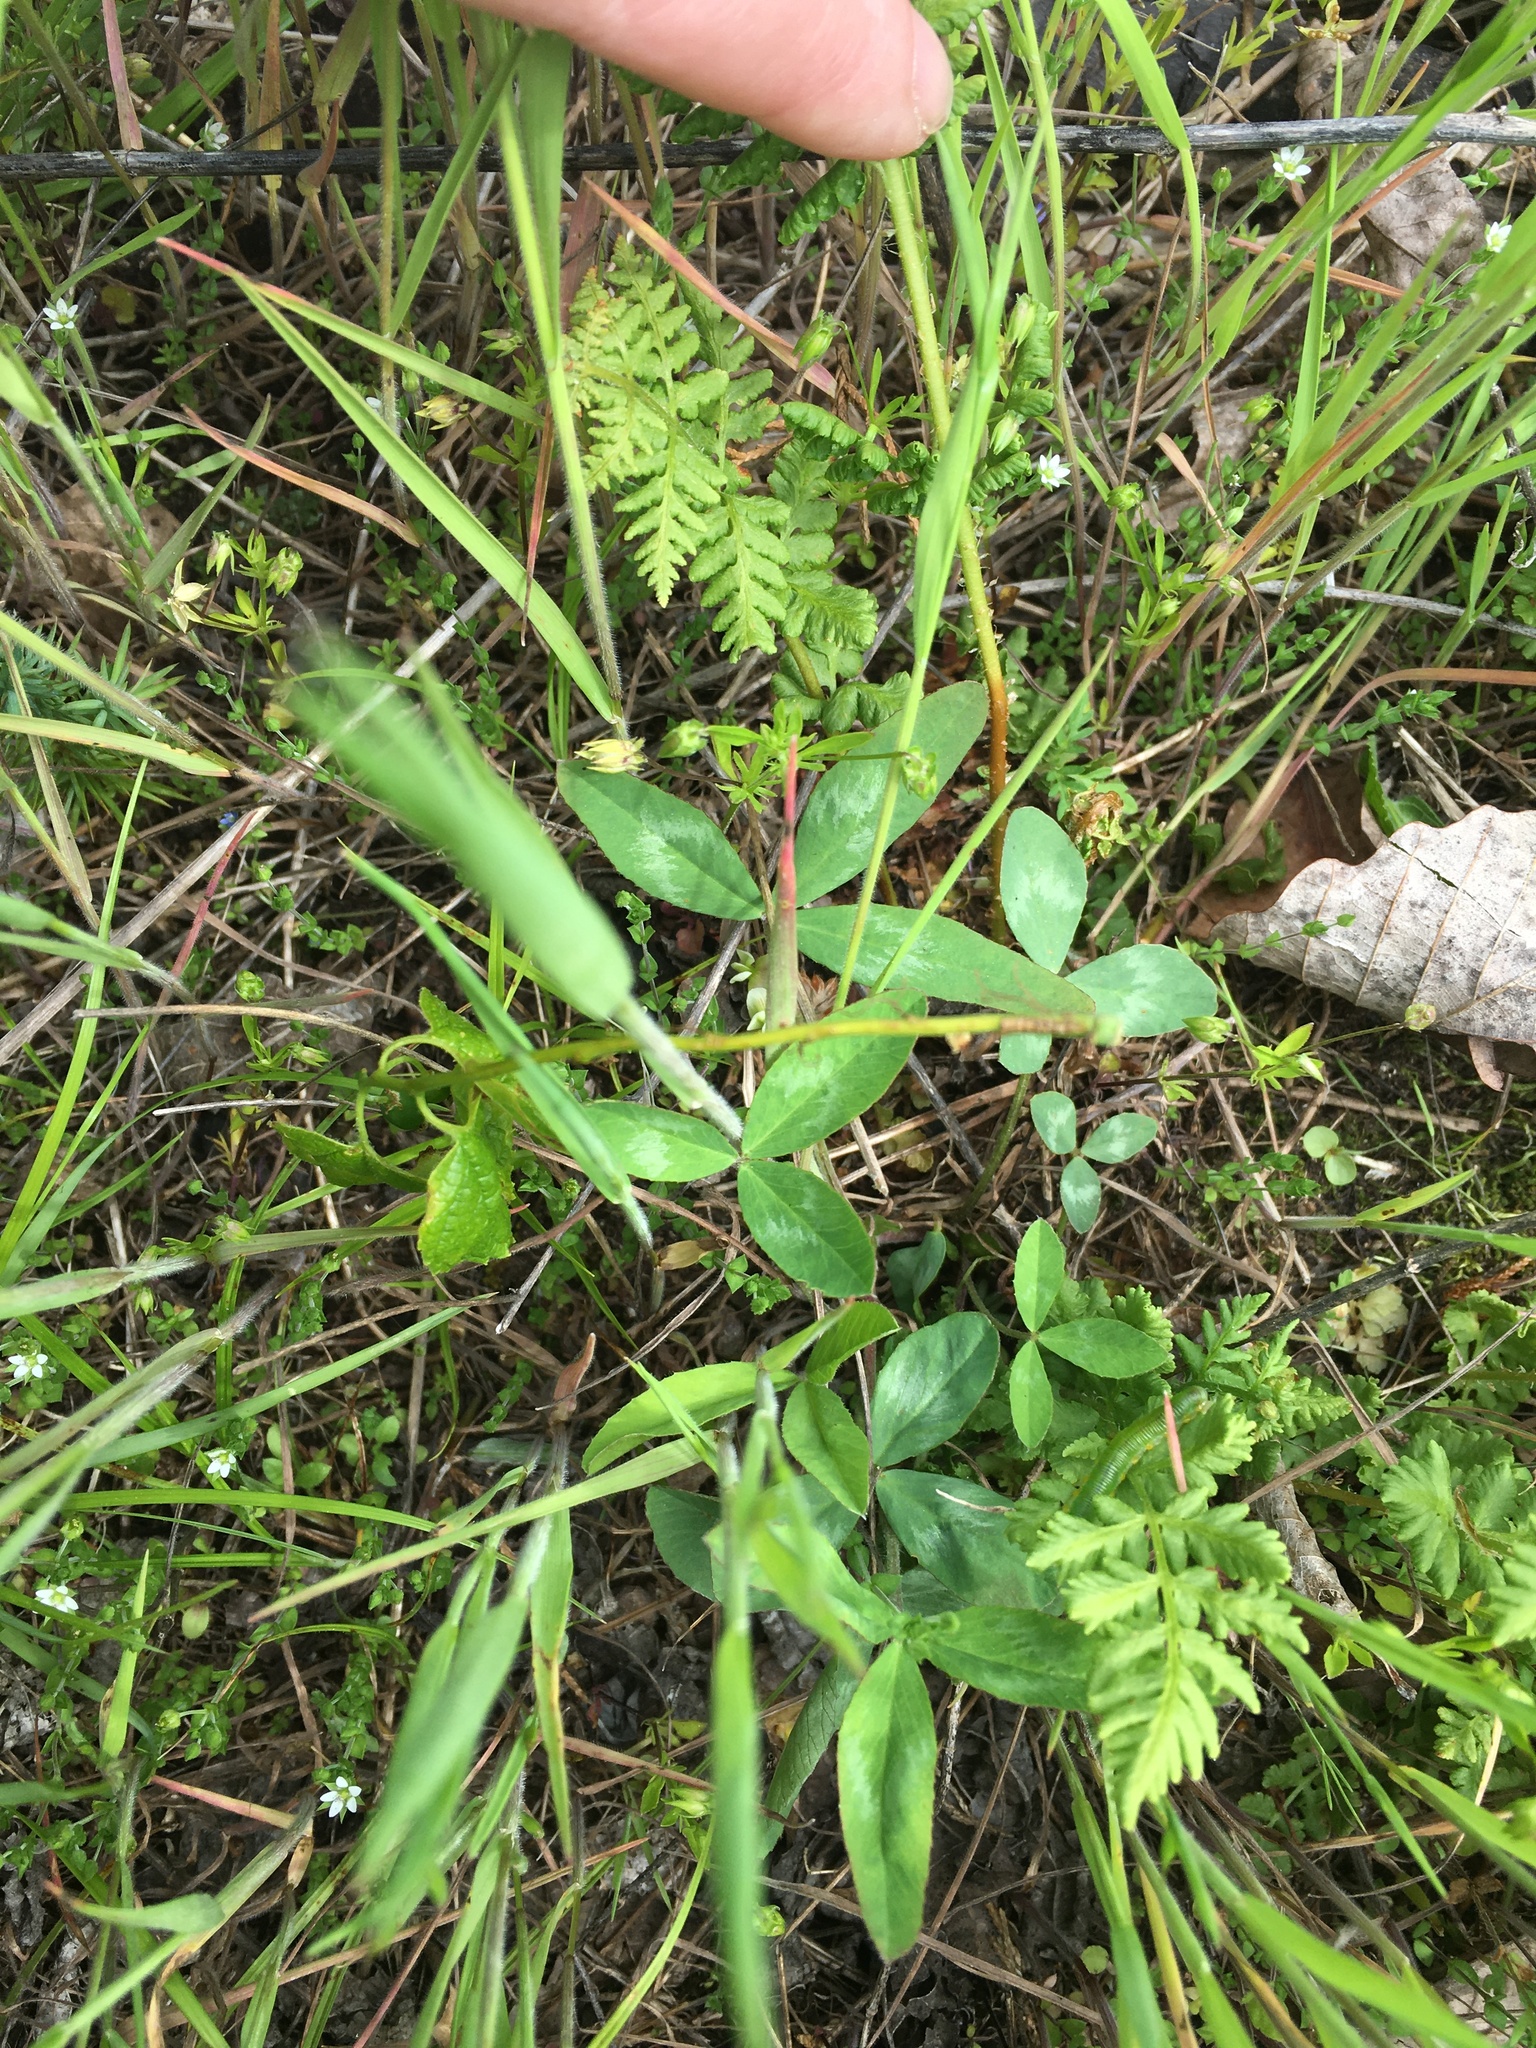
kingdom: Plantae
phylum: Tracheophyta
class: Magnoliopsida
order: Fabales
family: Fabaceae
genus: Trifolium
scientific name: Trifolium virginicum
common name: Kate's mountain clover
